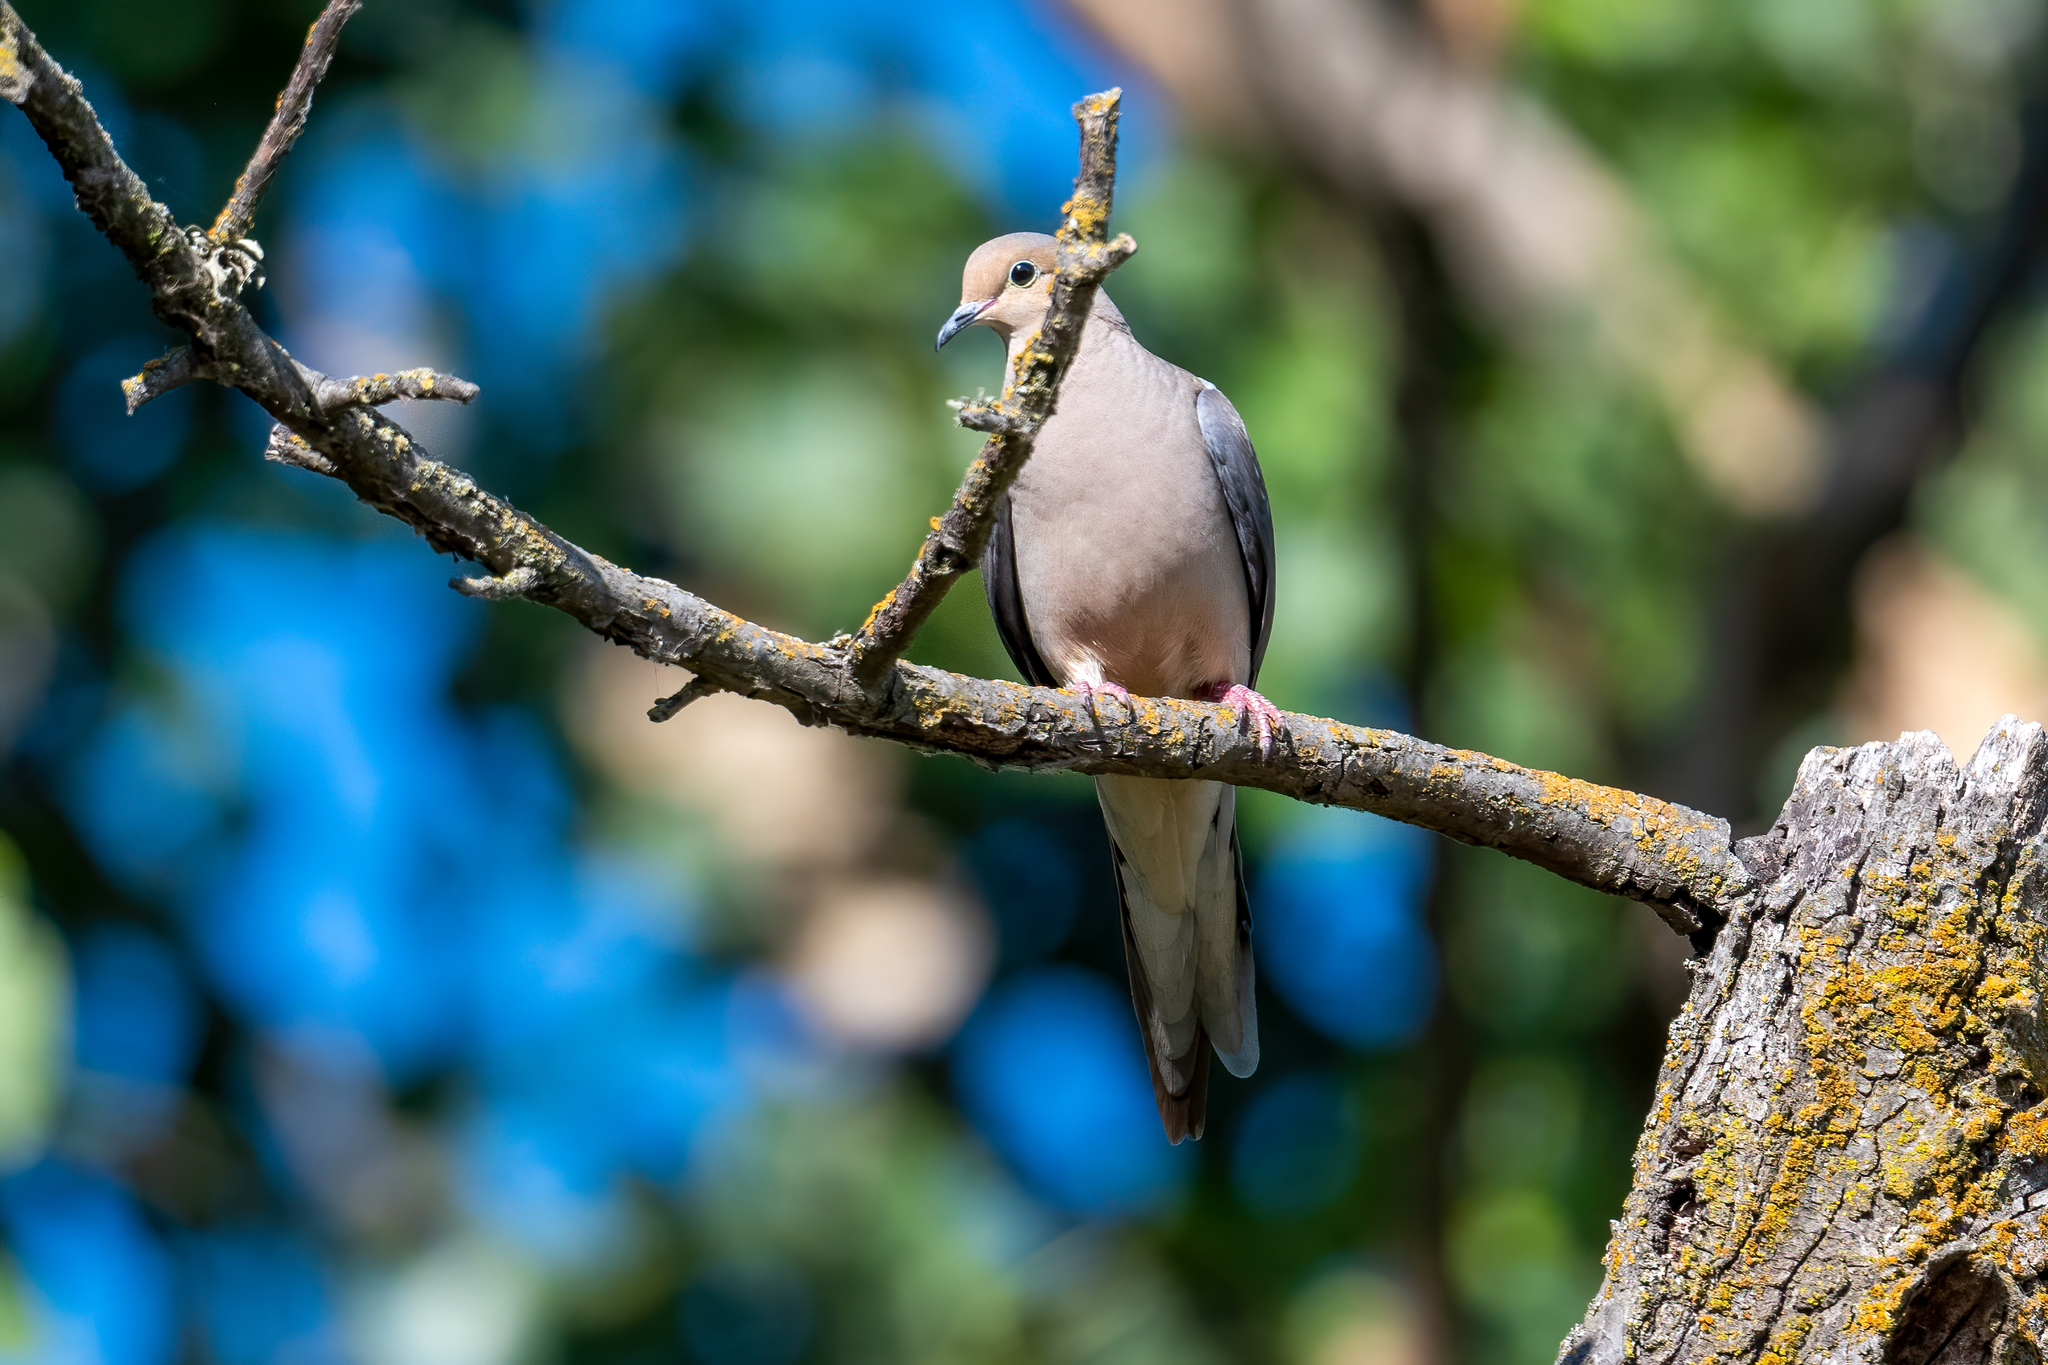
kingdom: Animalia
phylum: Chordata
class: Aves
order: Columbiformes
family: Columbidae
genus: Zenaida
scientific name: Zenaida macroura
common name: Mourning dove
